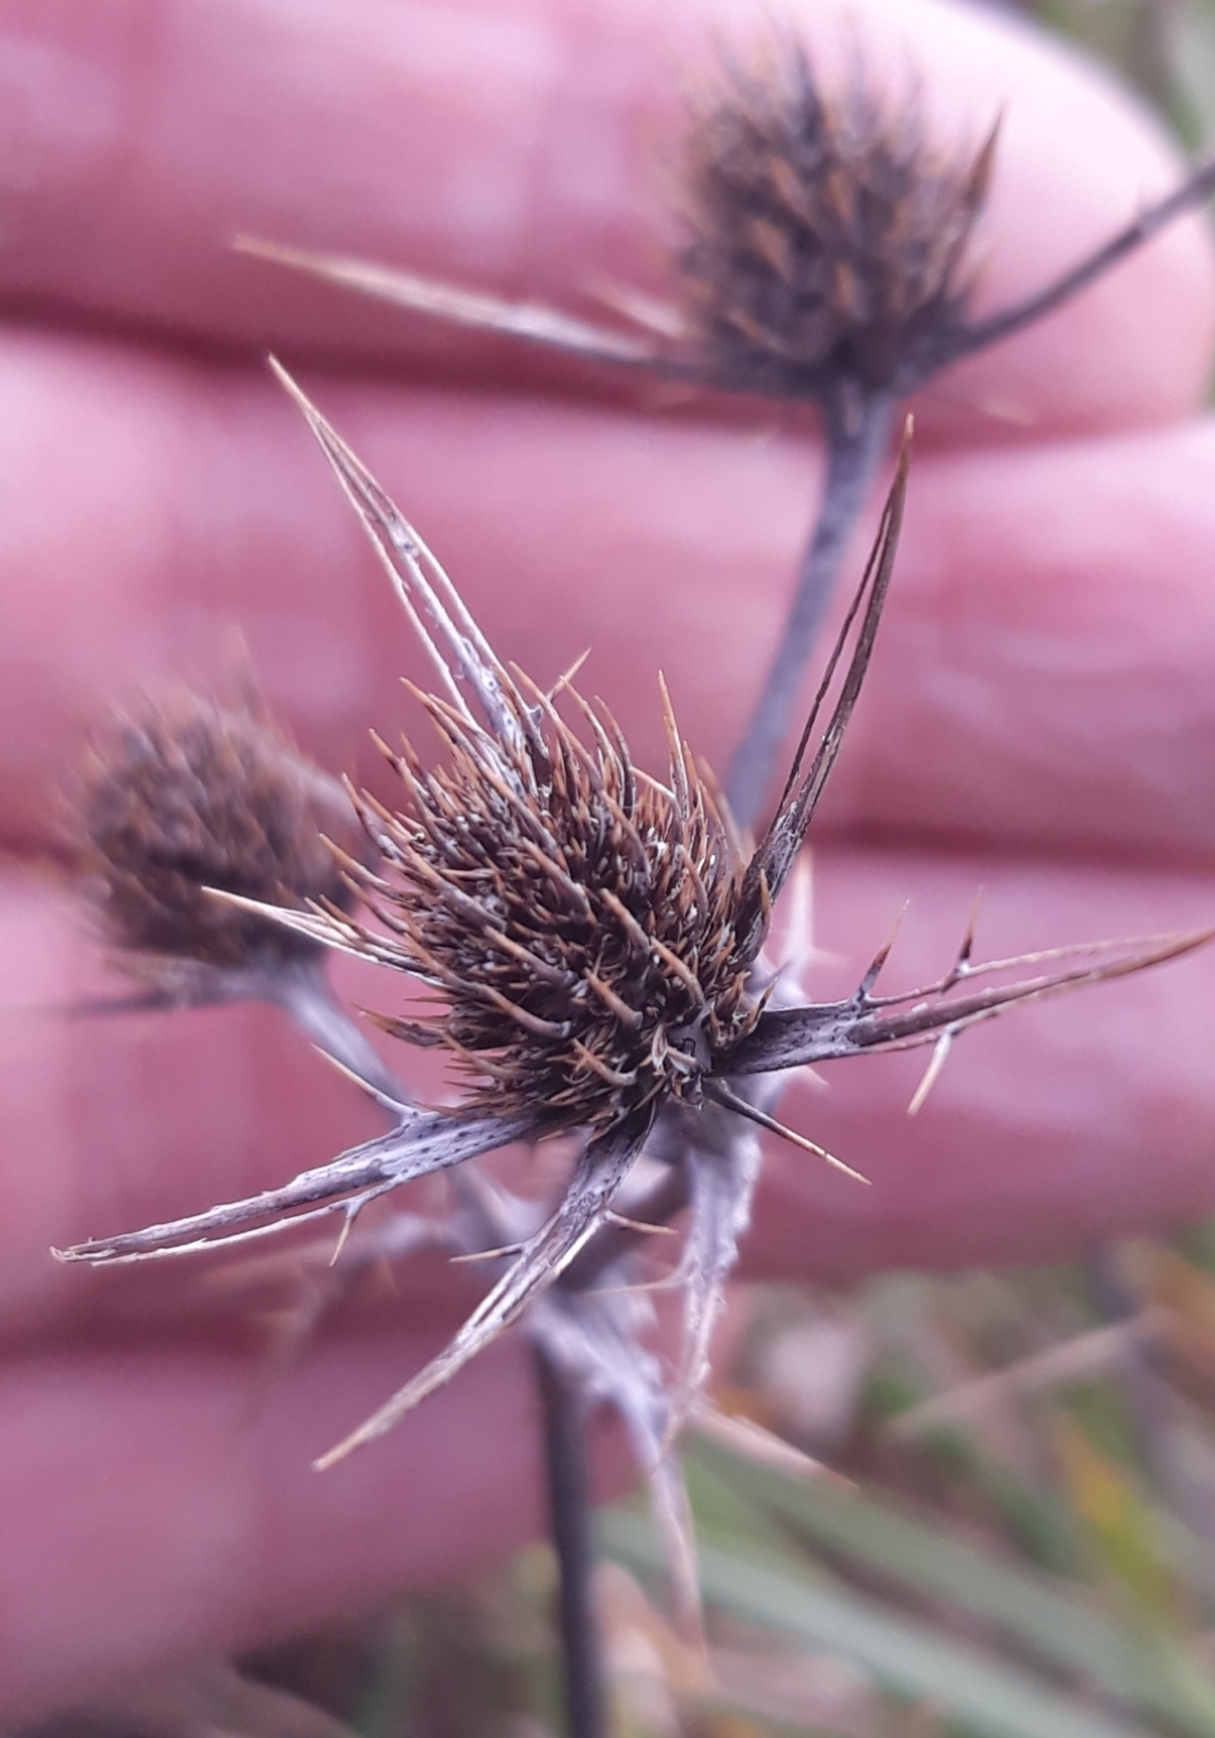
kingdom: Plantae
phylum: Tracheophyta
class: Magnoliopsida
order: Apiales
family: Apiaceae
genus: Eryngium
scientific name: Eryngium campestre
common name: Field eryngo
